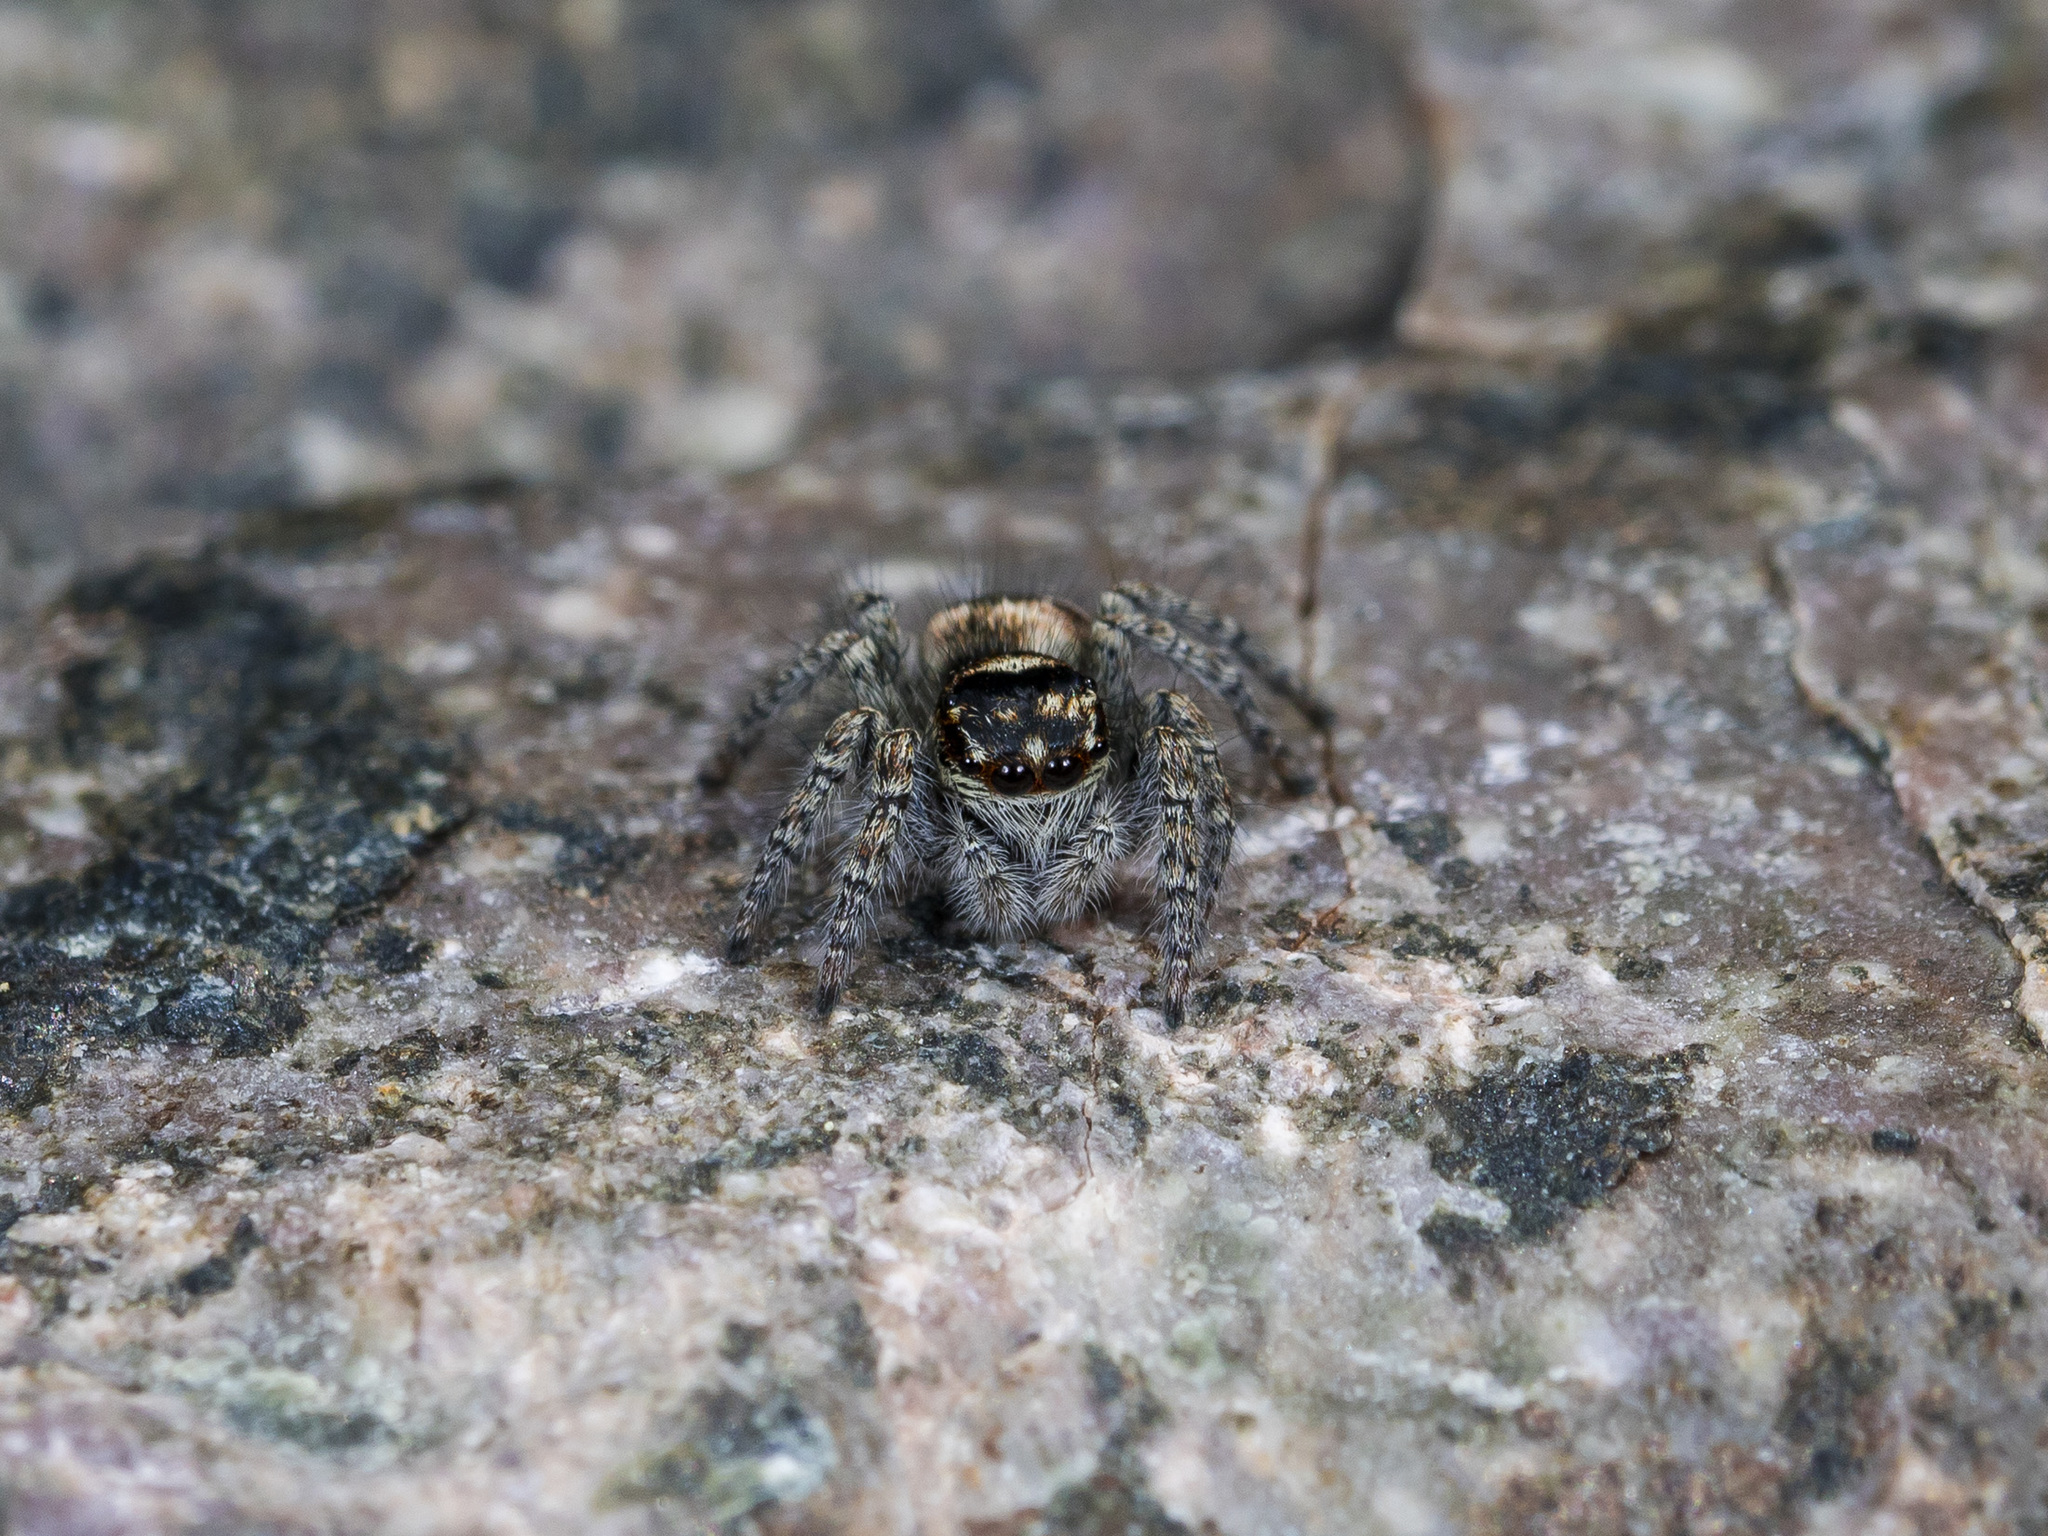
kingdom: Animalia
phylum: Arthropoda
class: Arachnida
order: Araneae
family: Salticidae
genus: Philaeus
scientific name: Philaeus chrysops
